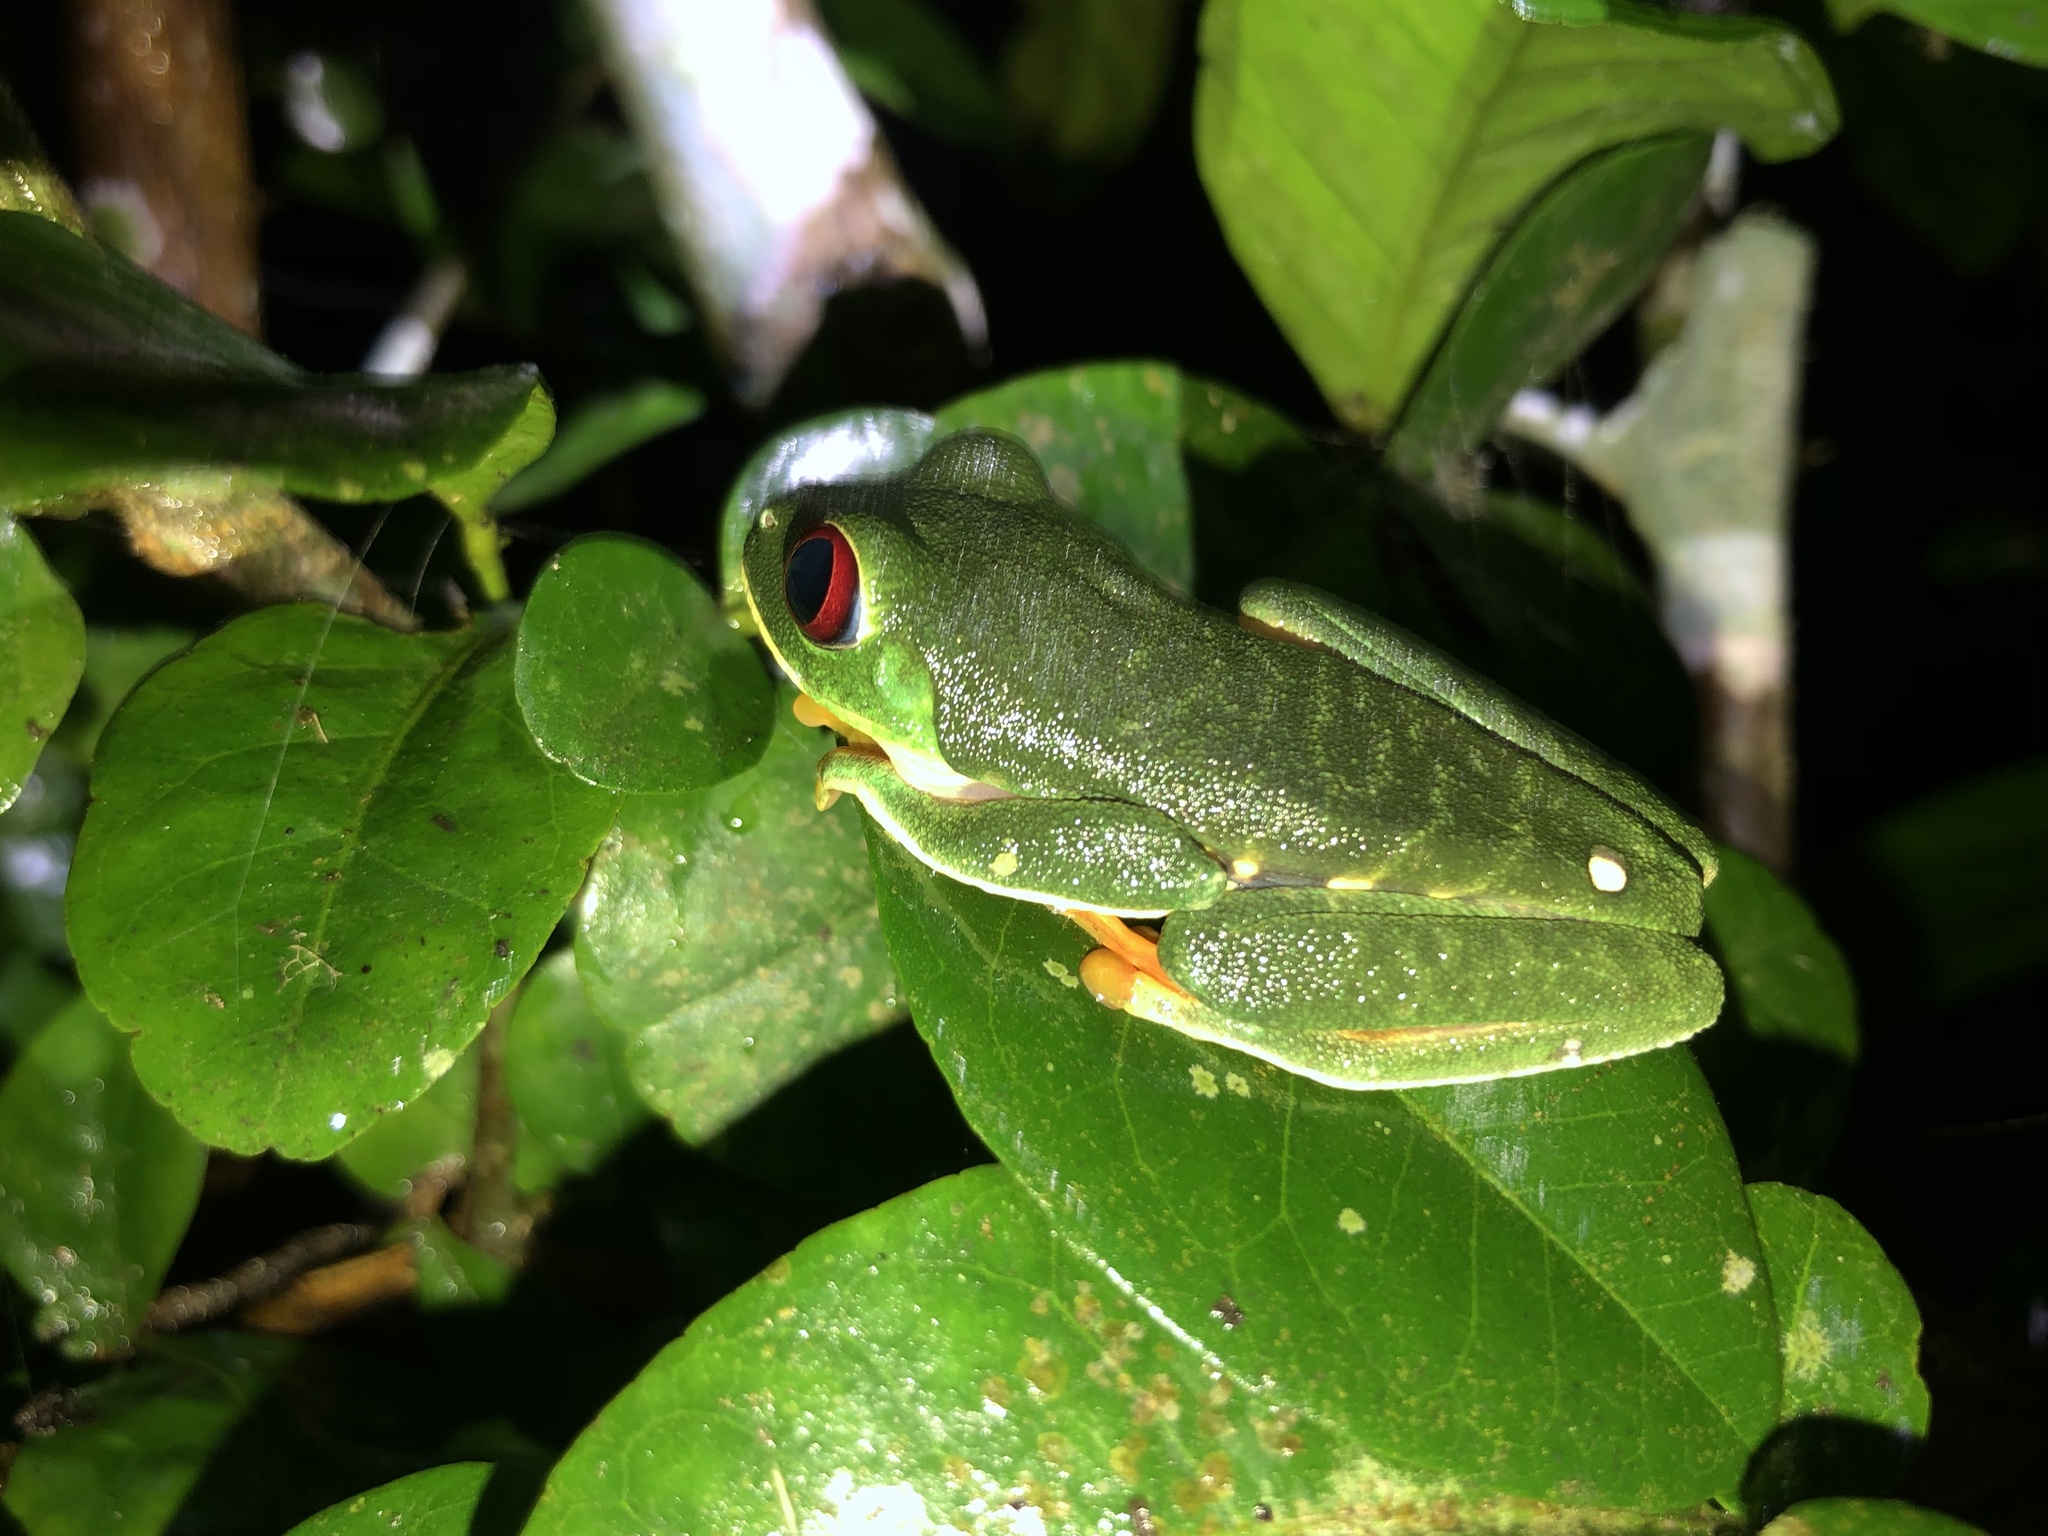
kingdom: Animalia
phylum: Chordata
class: Amphibia
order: Anura
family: Phyllomedusidae
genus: Agalychnis
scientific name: Agalychnis callidryas
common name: Red-eyed treefrog
